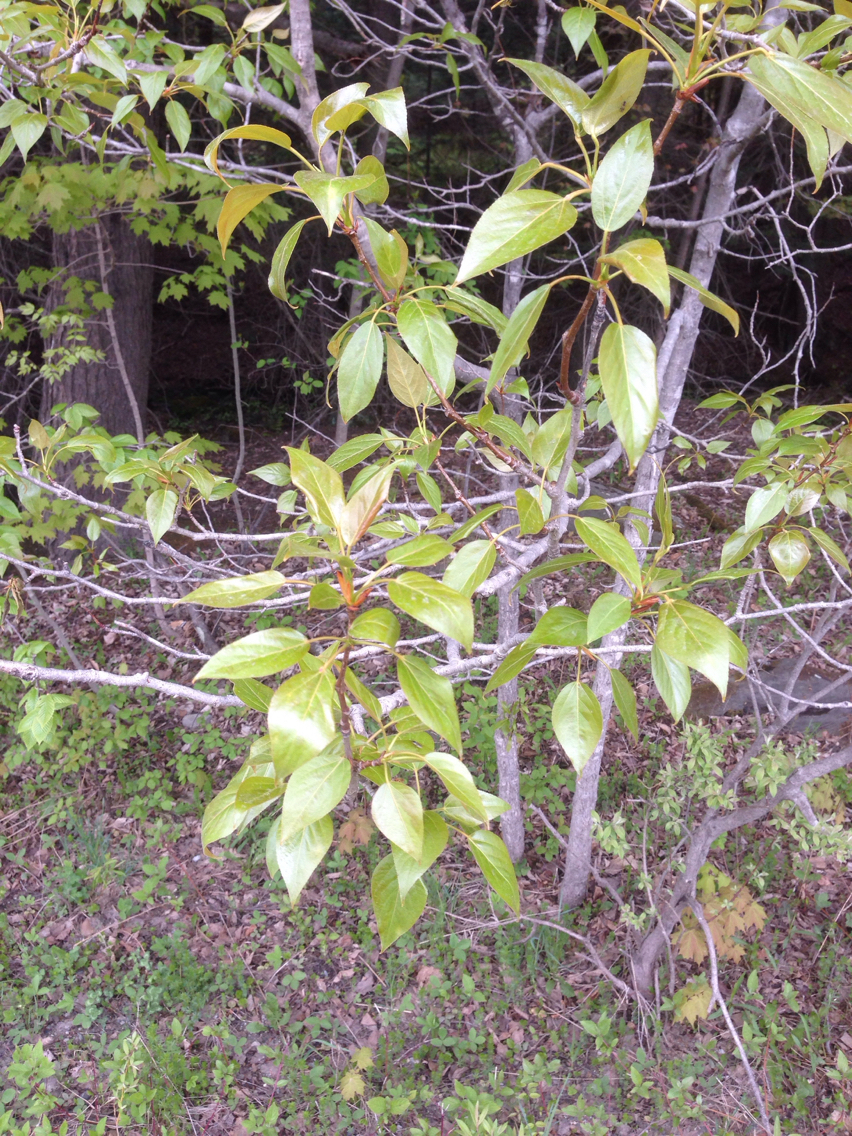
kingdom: Plantae
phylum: Tracheophyta
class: Magnoliopsida
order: Malpighiales
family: Salicaceae
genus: Populus
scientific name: Populus balsamifera
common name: Balsam poplar
